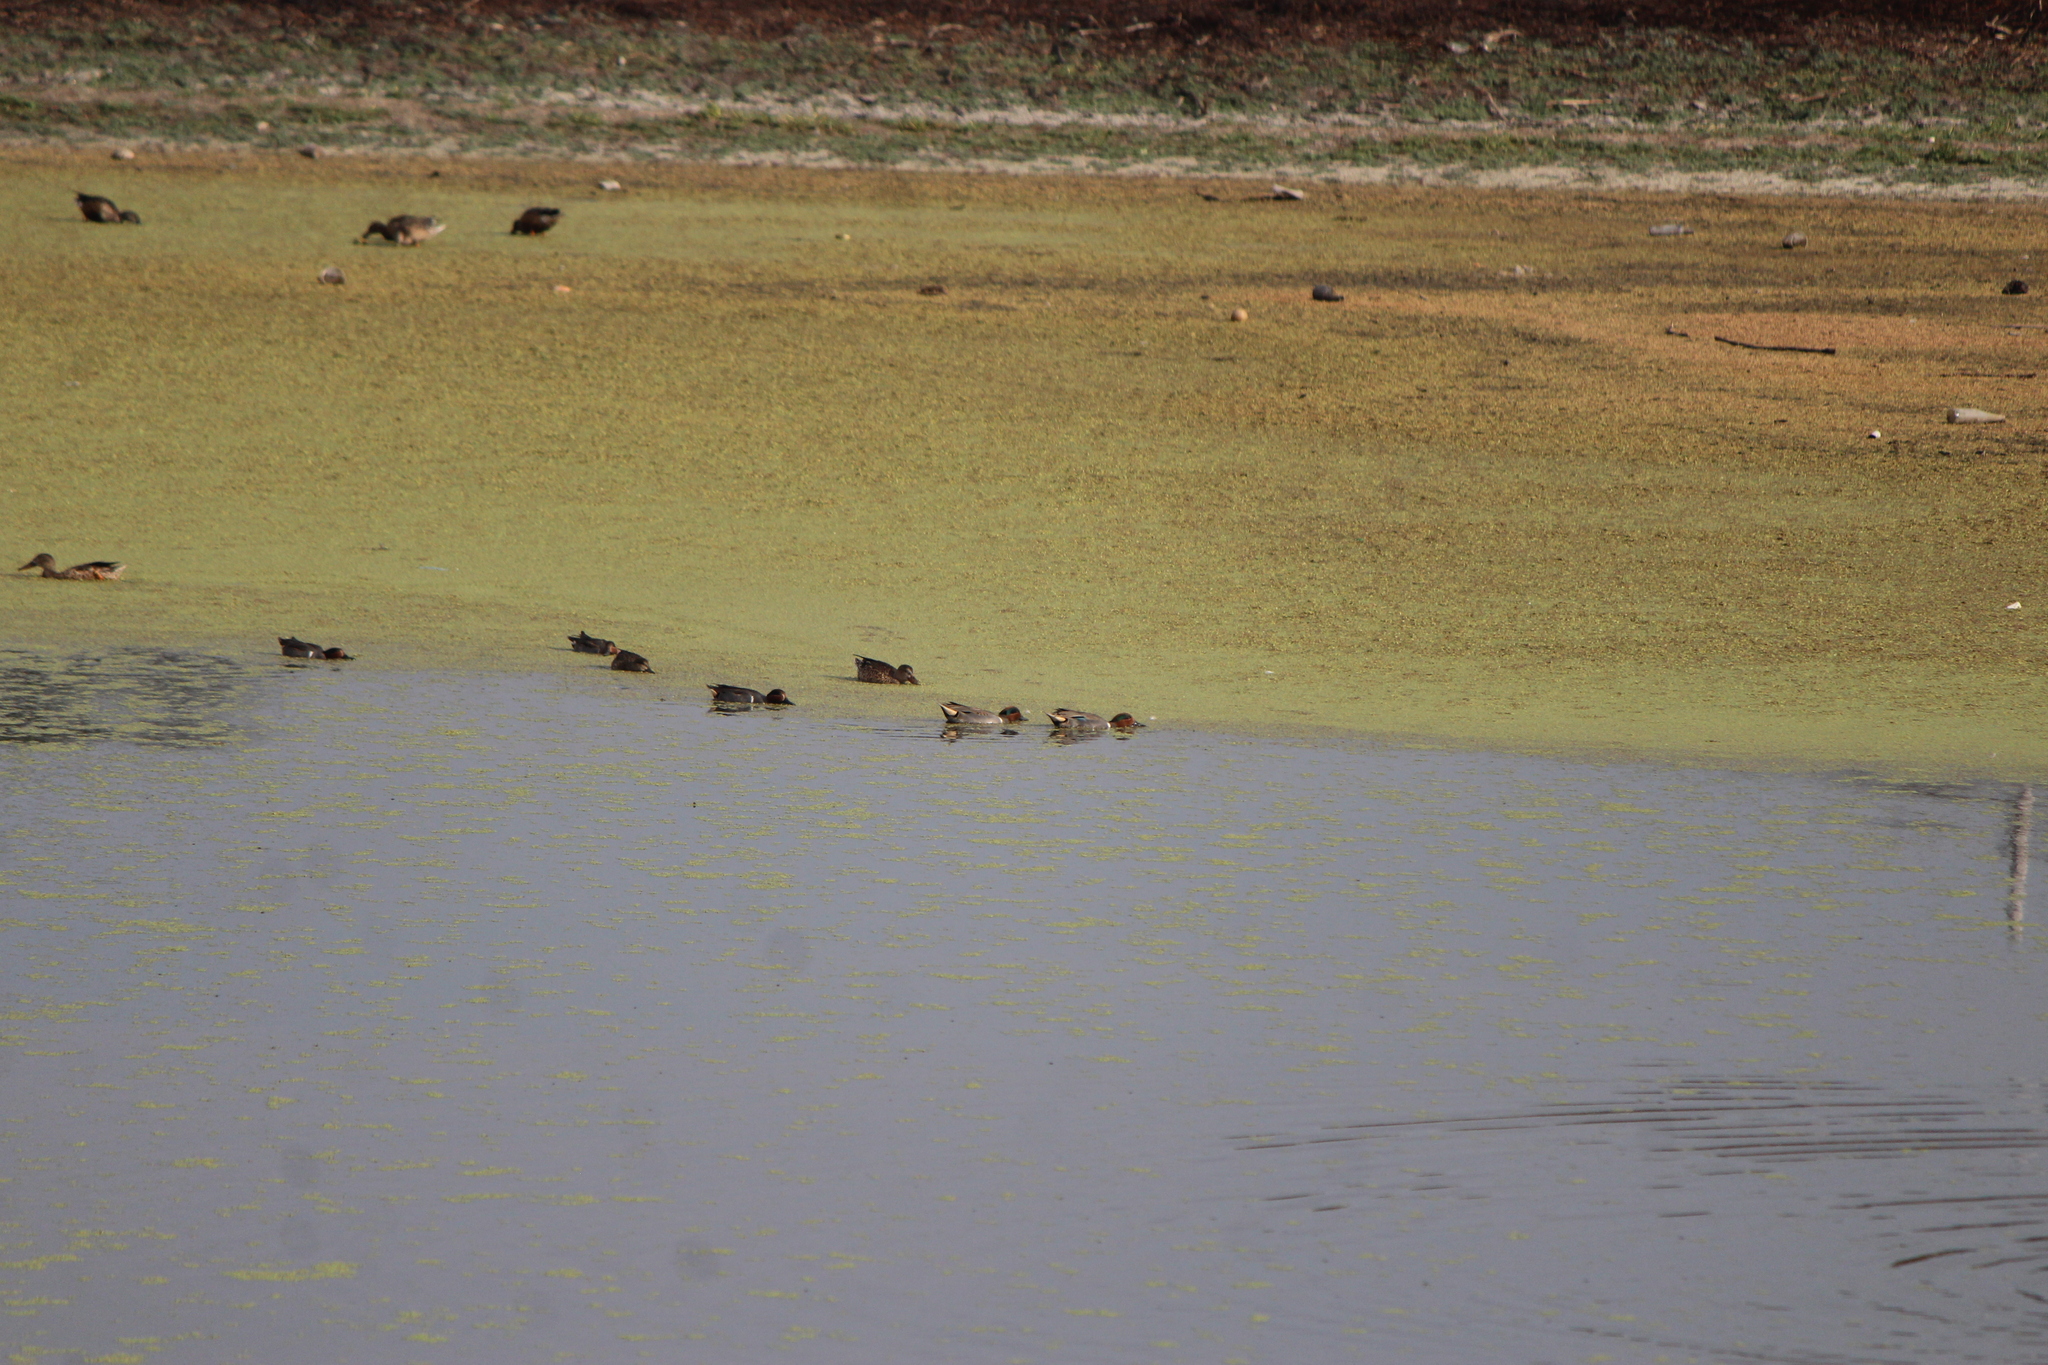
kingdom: Animalia
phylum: Chordata
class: Aves
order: Anseriformes
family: Anatidae
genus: Anas
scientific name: Anas crecca
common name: Eurasian teal
